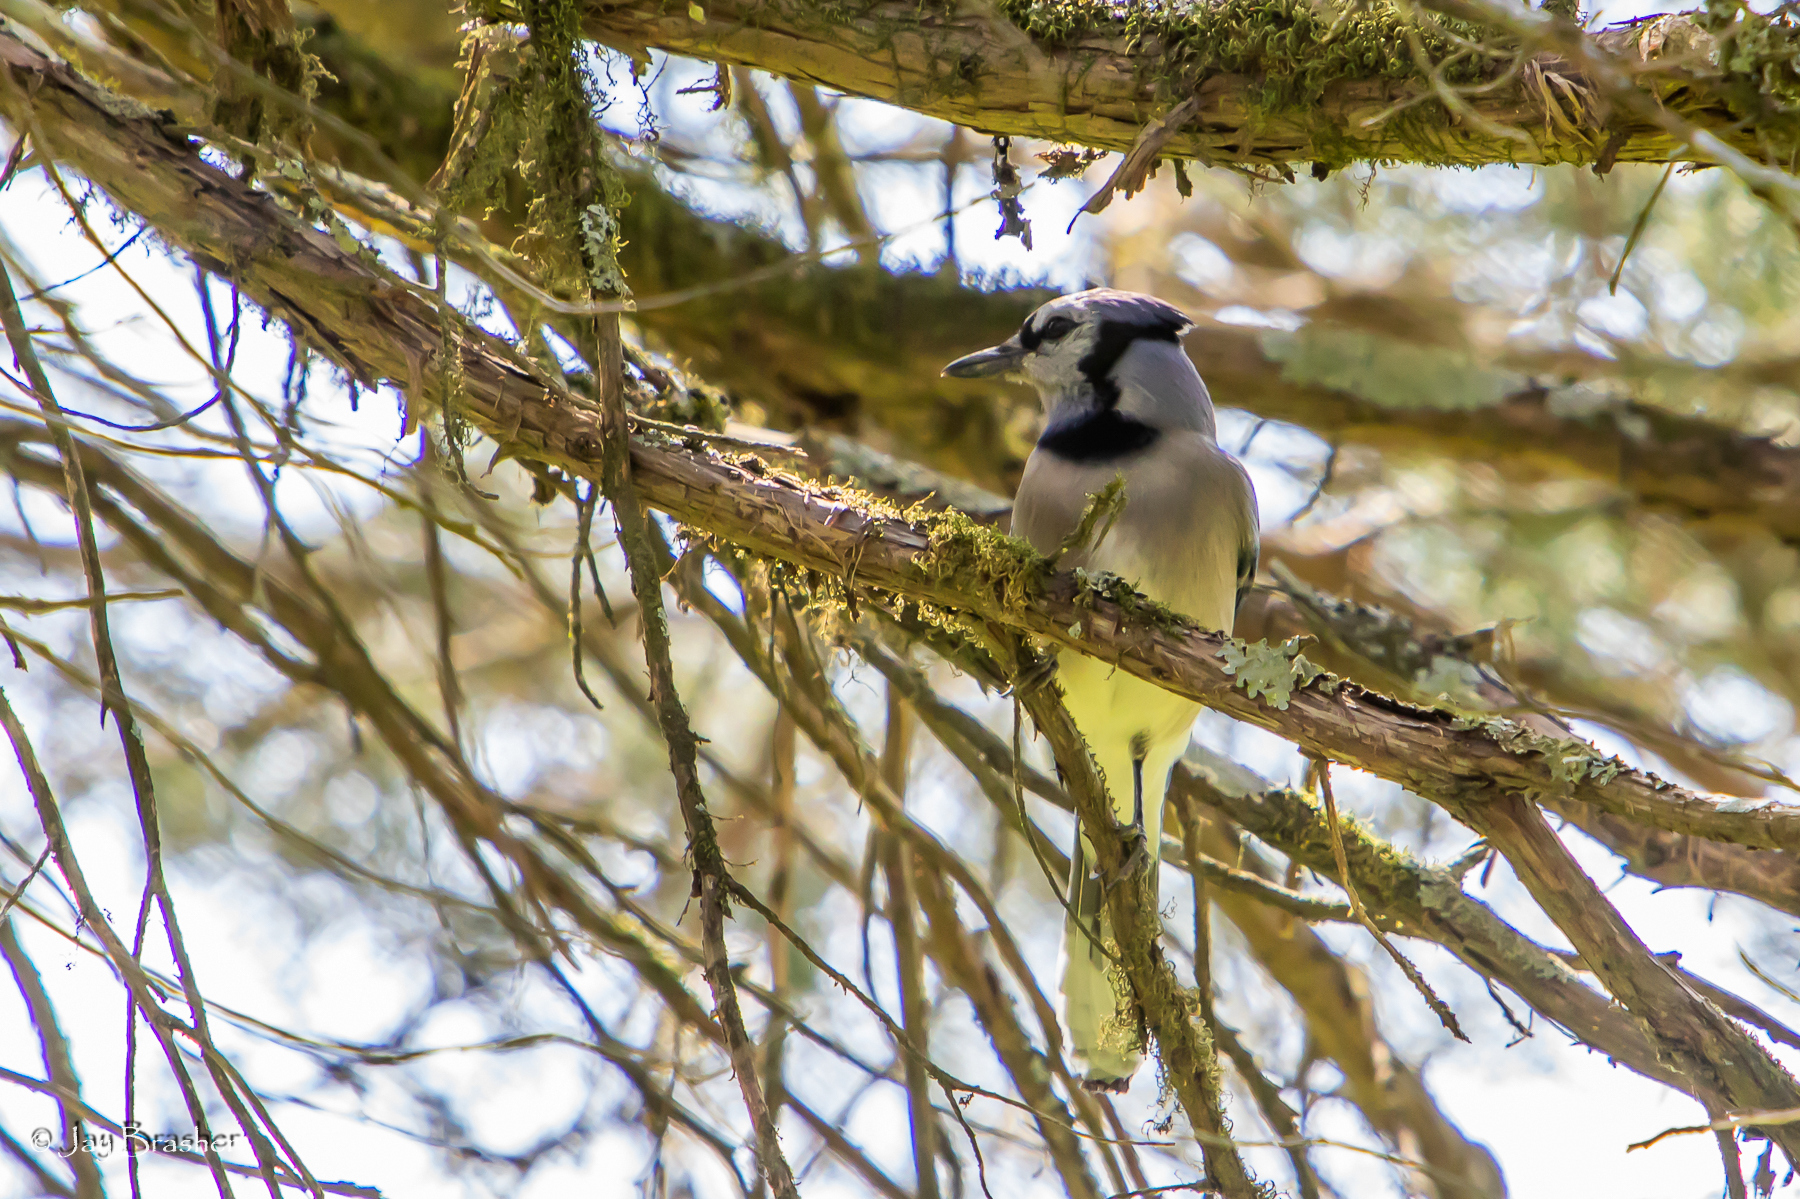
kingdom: Animalia
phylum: Chordata
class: Aves
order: Passeriformes
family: Corvidae
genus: Cyanocitta
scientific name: Cyanocitta cristata
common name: Blue jay
